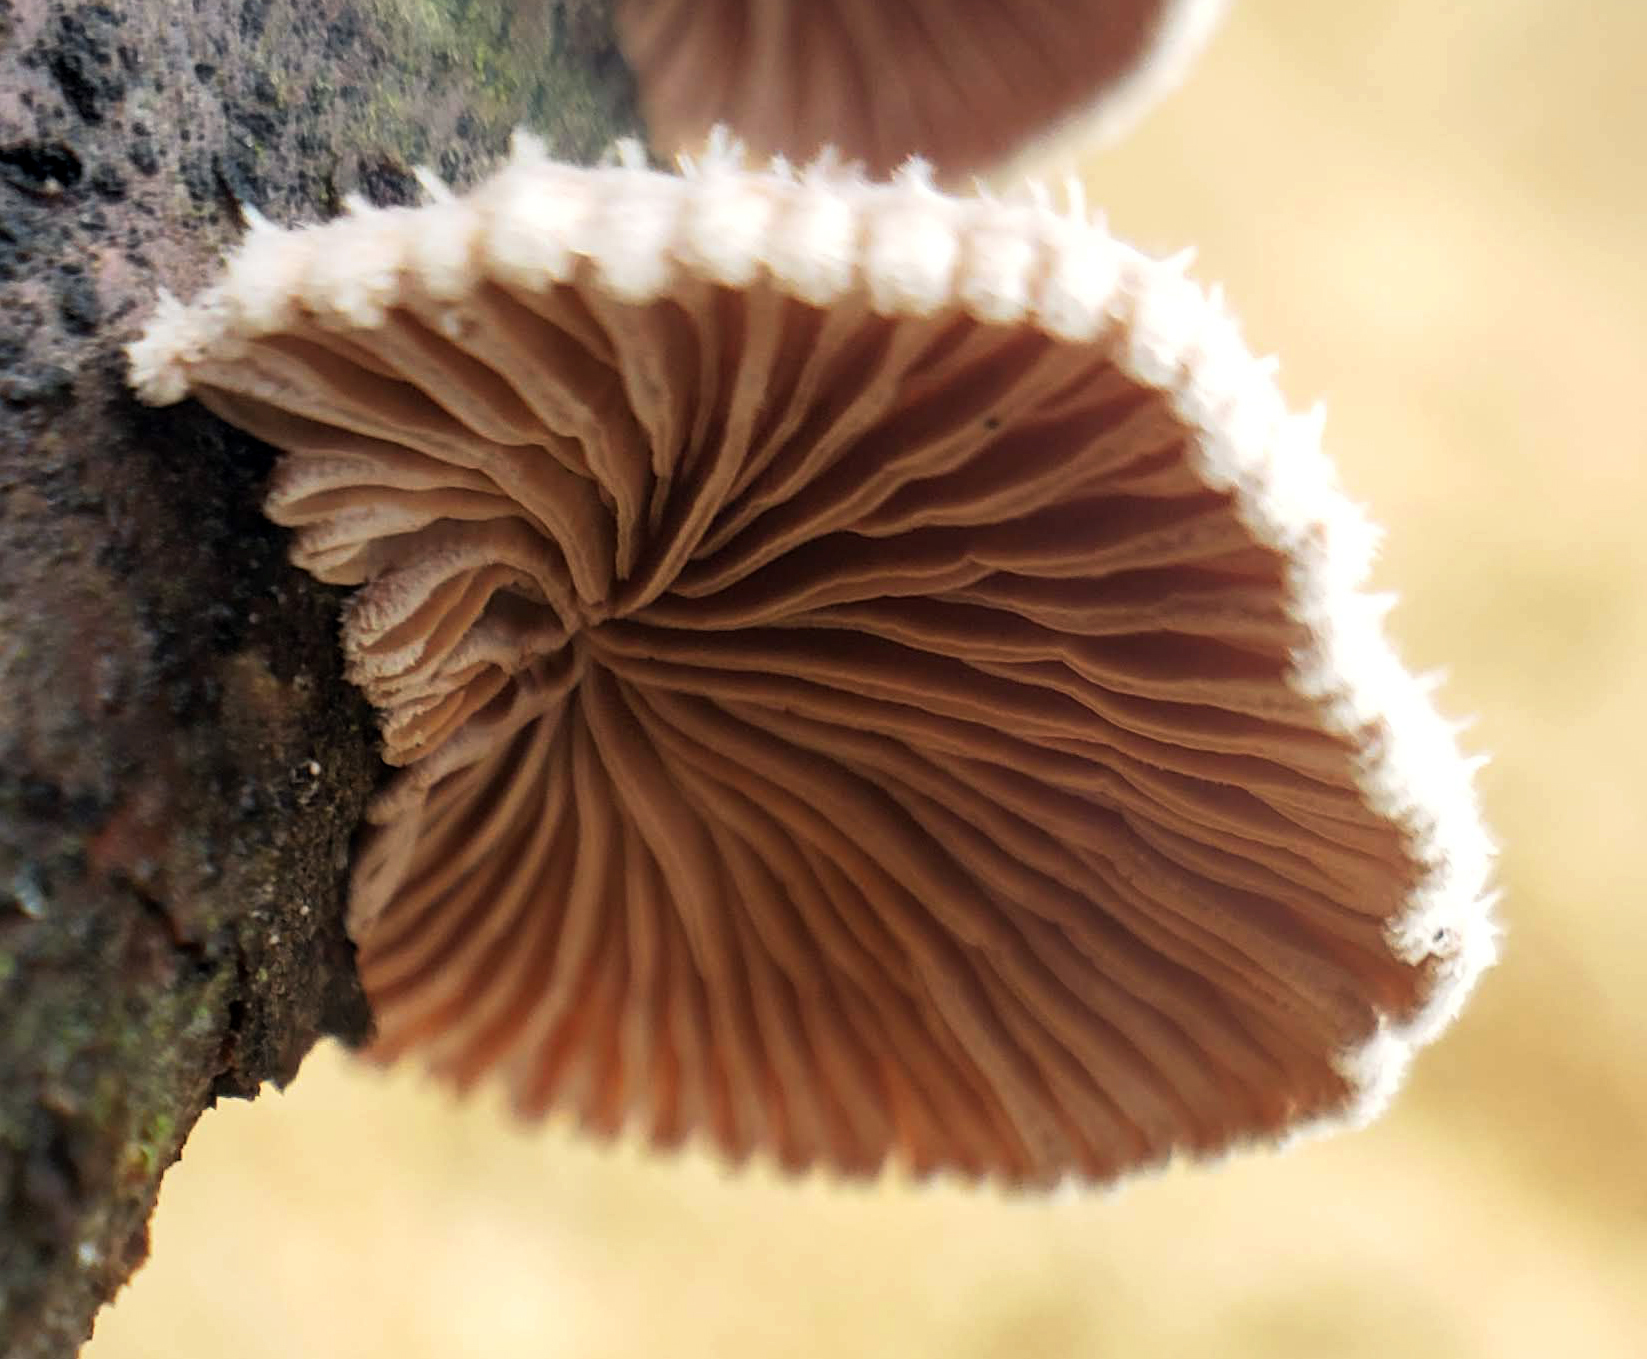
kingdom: Fungi
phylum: Basidiomycota
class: Agaricomycetes
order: Agaricales
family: Schizophyllaceae
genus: Schizophyllum
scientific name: Schizophyllum commune
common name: Common porecrust
